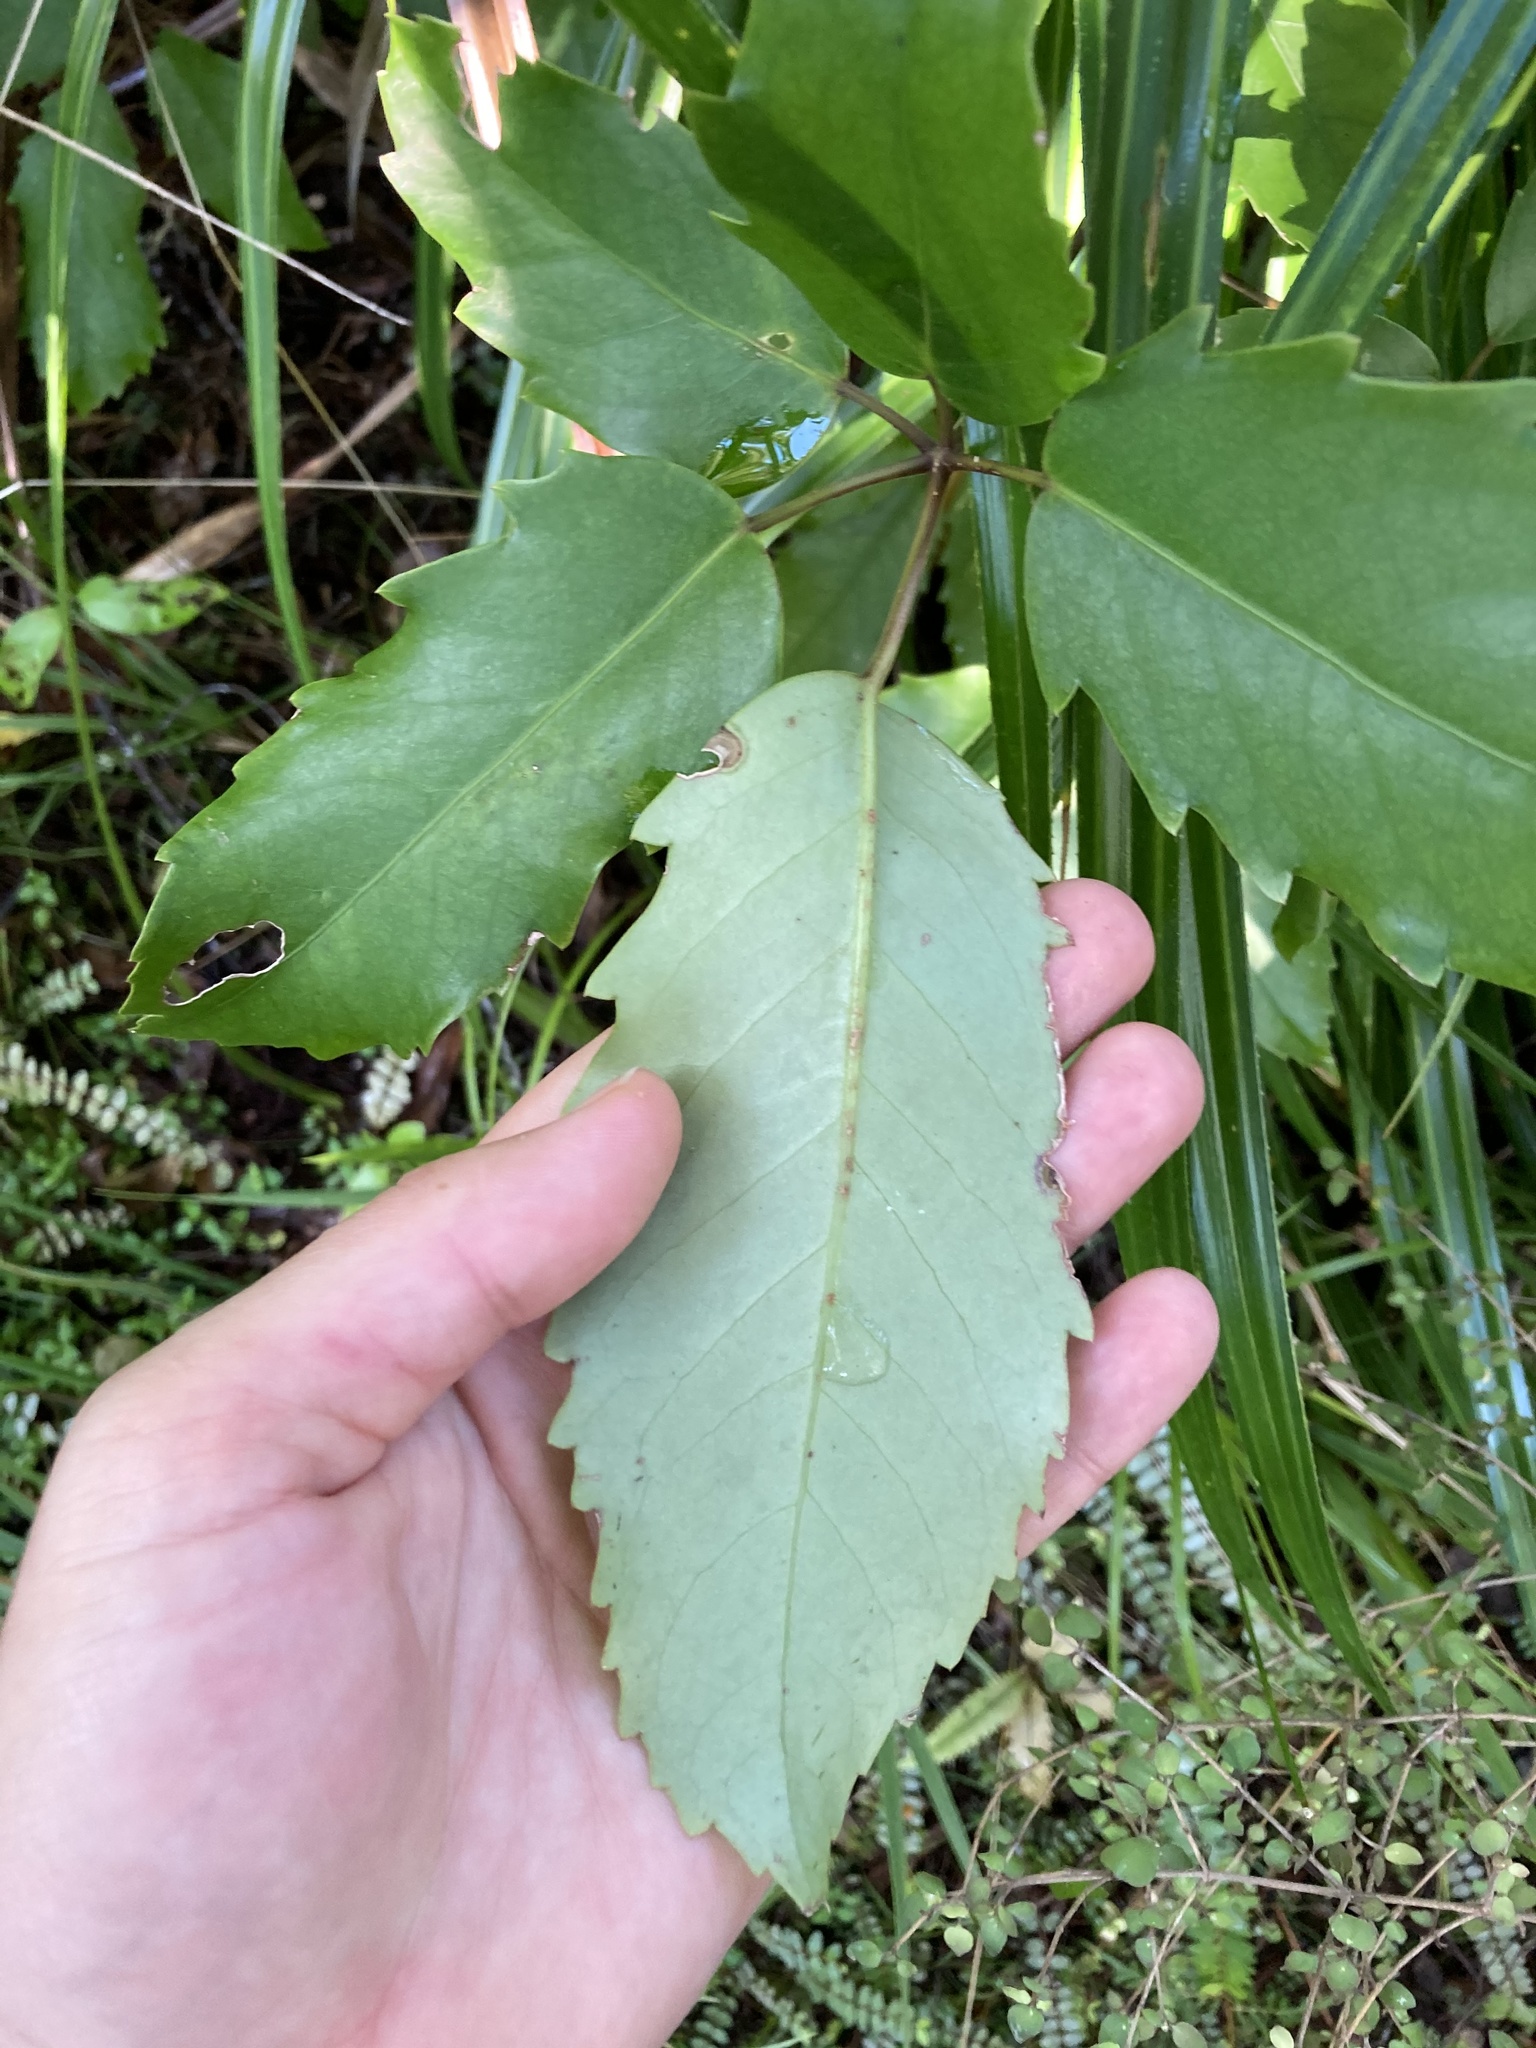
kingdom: Plantae
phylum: Tracheophyta
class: Magnoliopsida
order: Apiales
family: Araliaceae
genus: Neopanax
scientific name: Neopanax arboreus
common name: Five-fingers
